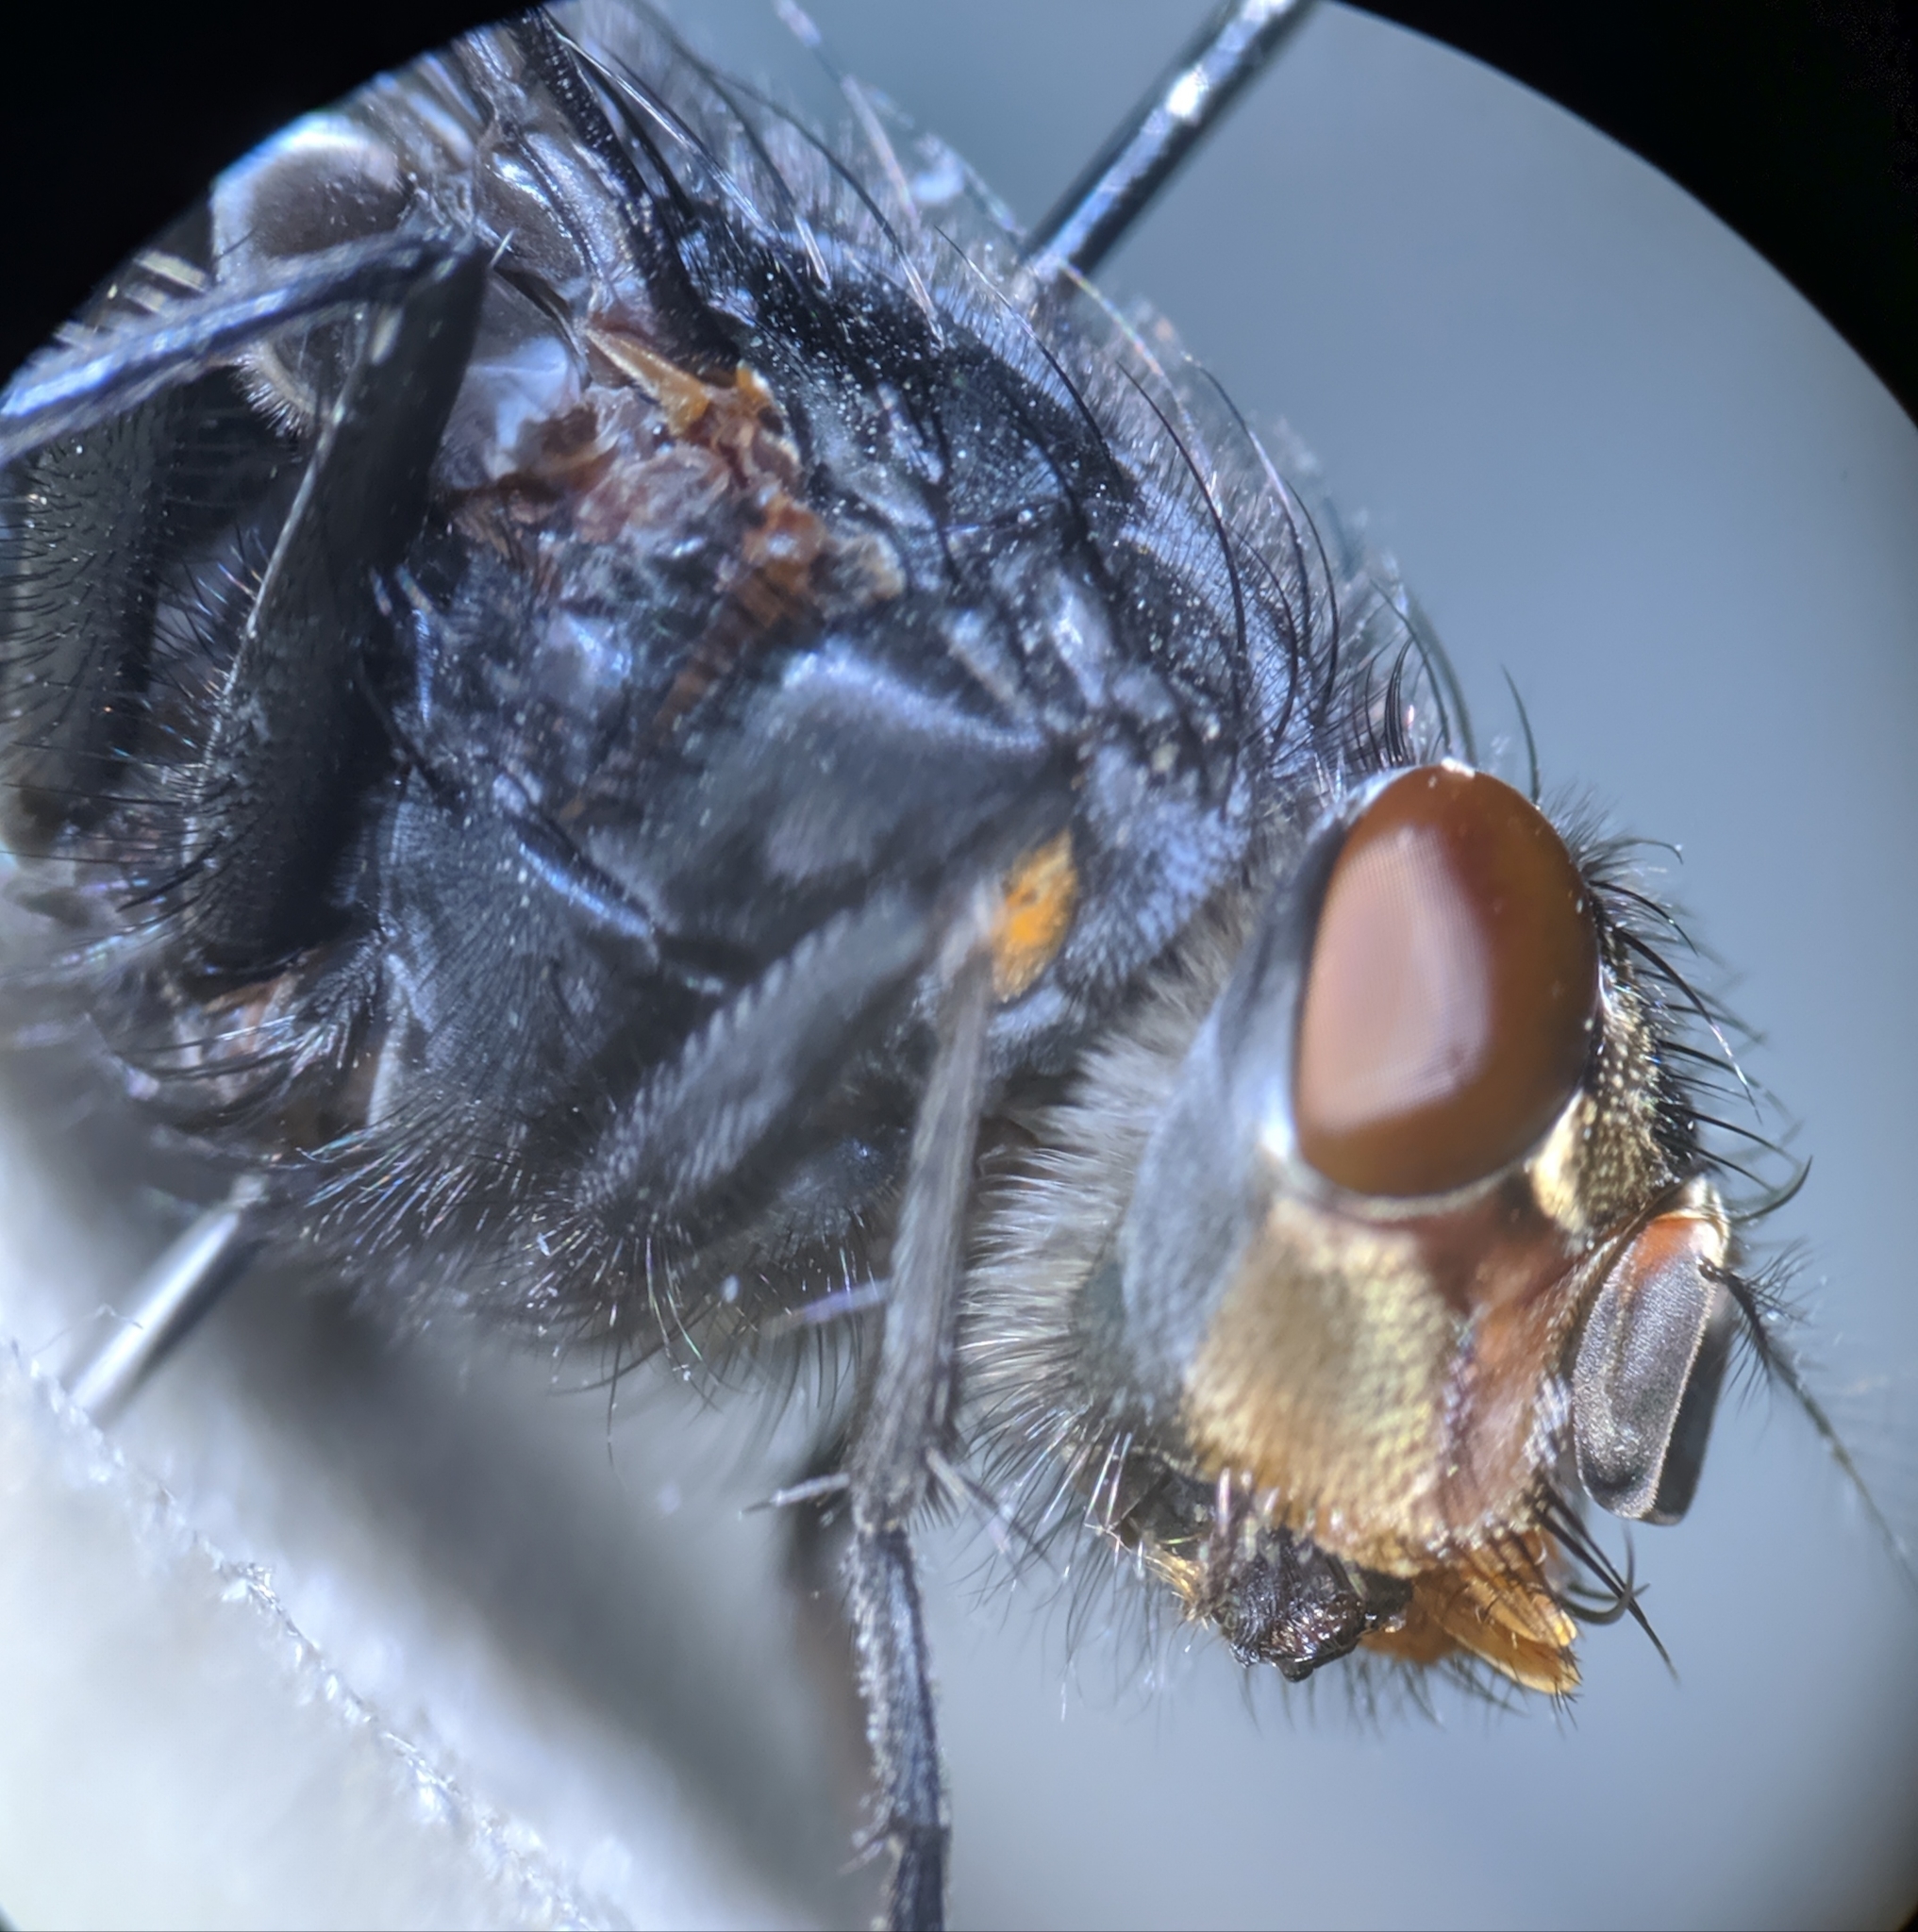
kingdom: Animalia
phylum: Arthropoda
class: Insecta
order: Diptera
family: Calliphoridae
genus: Calliphora
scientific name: Calliphora vicina
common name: Common blow flie
